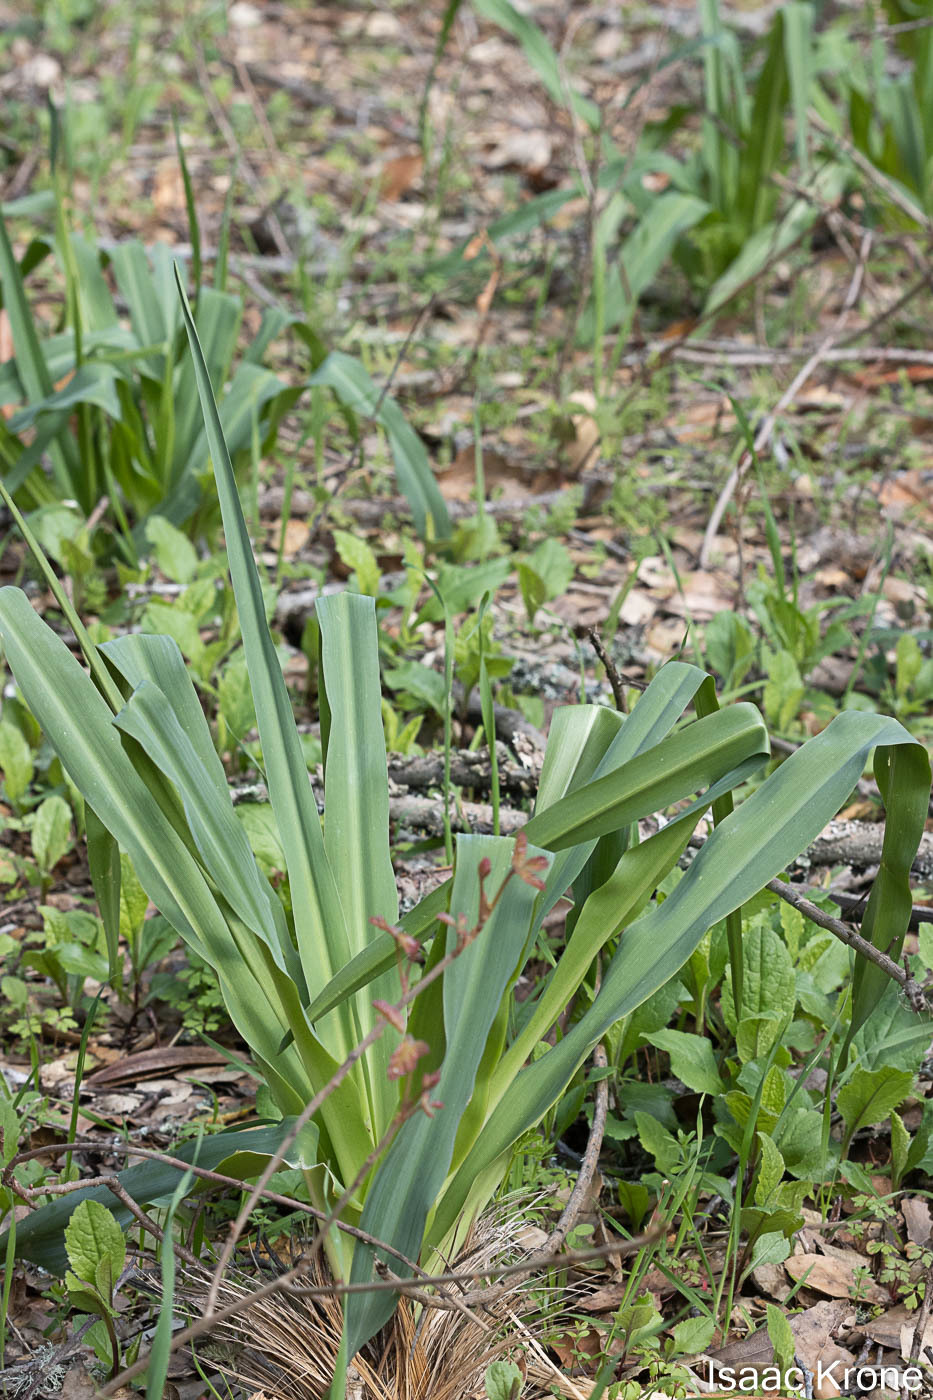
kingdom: Plantae
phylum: Tracheophyta
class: Liliopsida
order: Asparagales
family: Asparagaceae
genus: Chlorogalum
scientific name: Chlorogalum pomeridianum
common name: Amole
